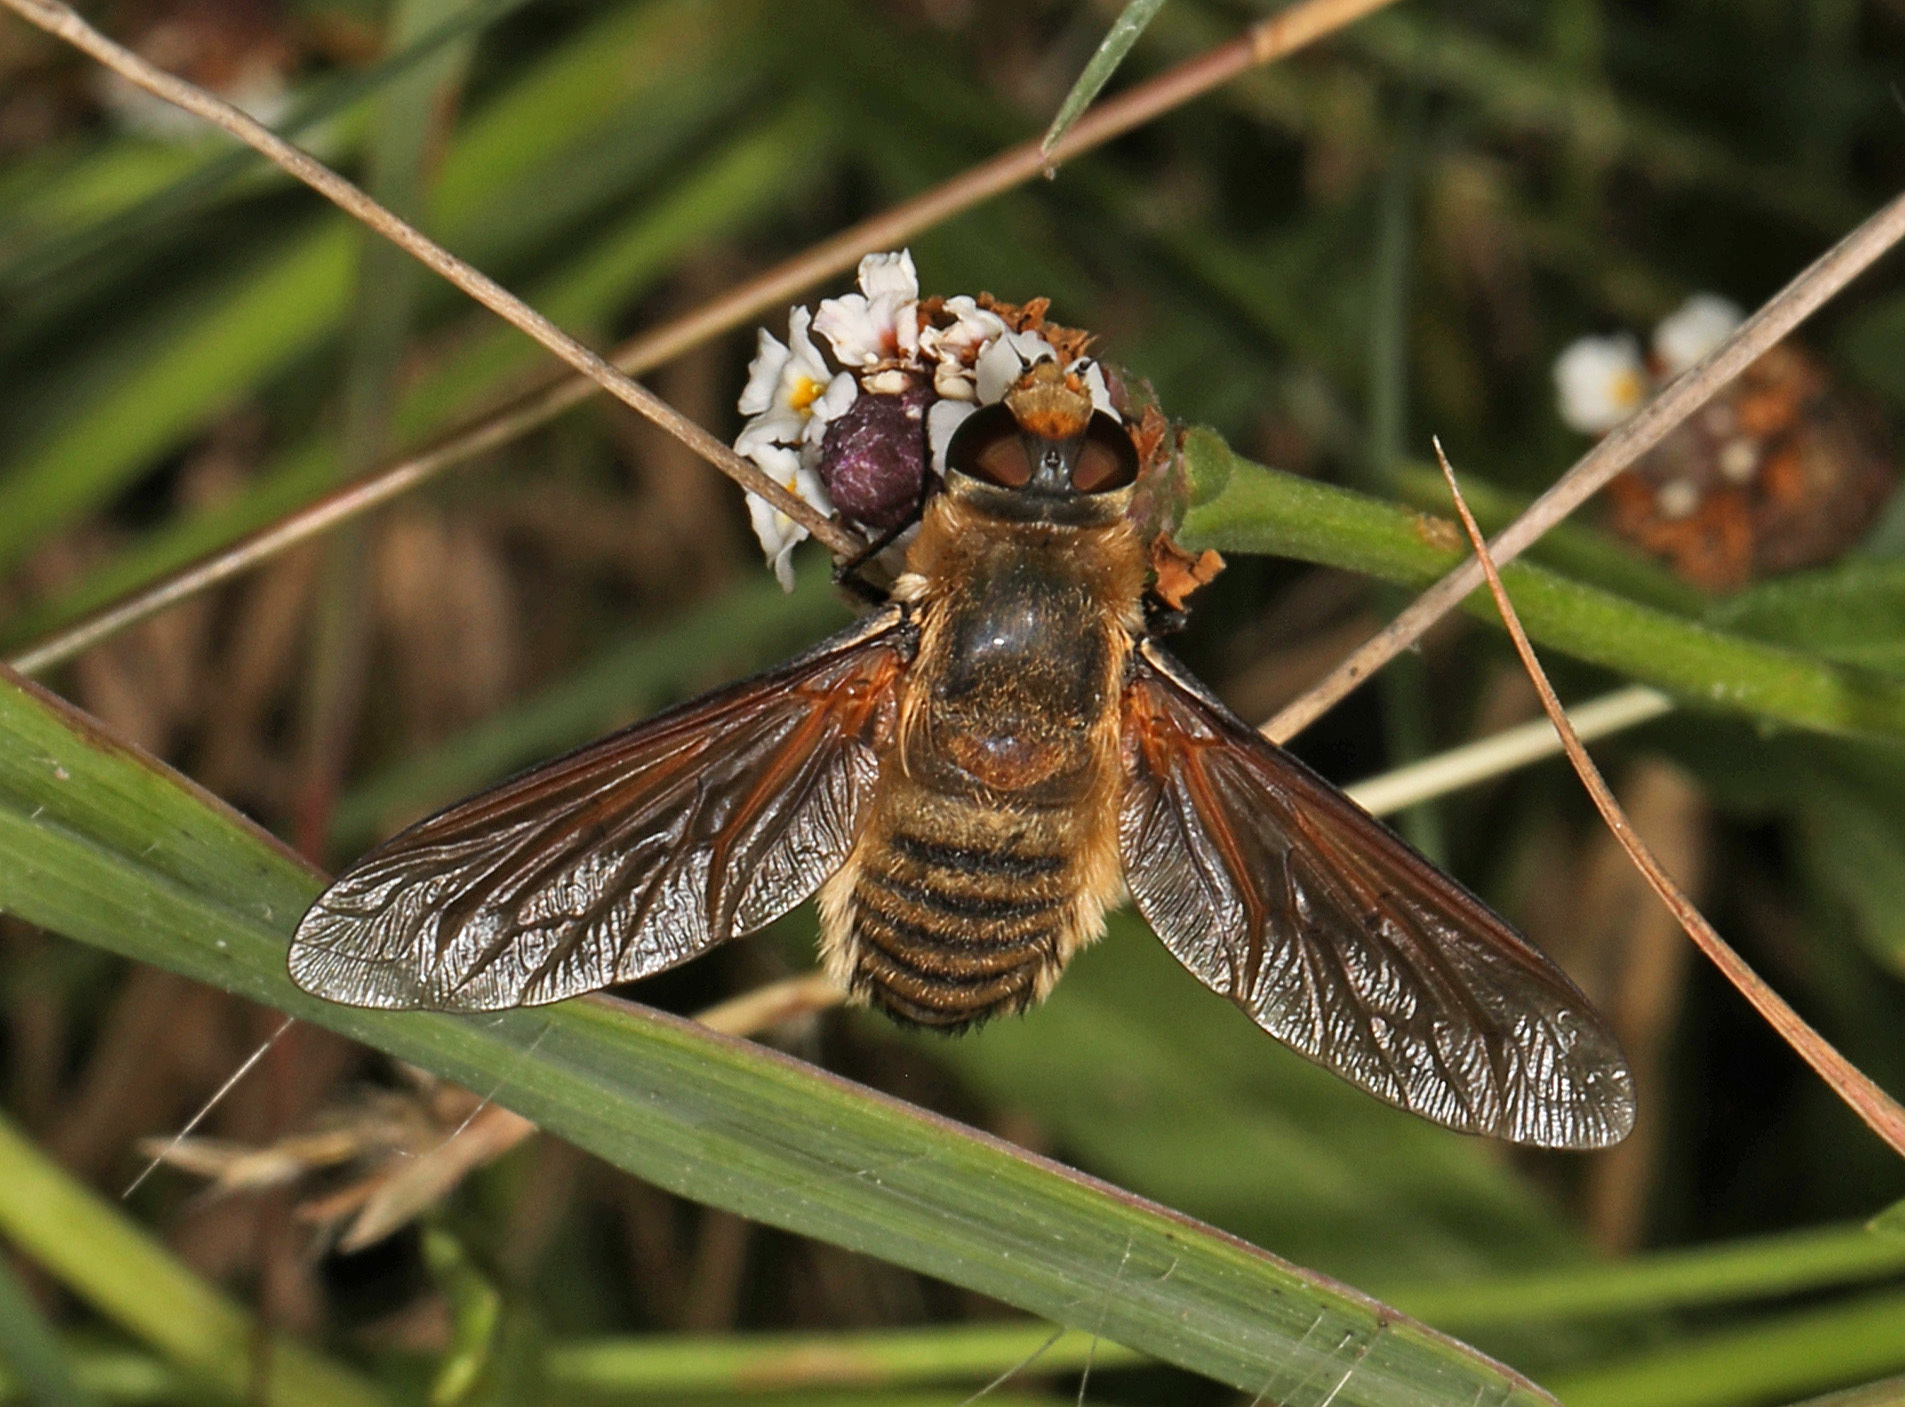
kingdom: Animalia
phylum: Arthropoda
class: Insecta
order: Diptera
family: Bombyliidae
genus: Poecilanthrax
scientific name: Poecilanthrax lucifer
